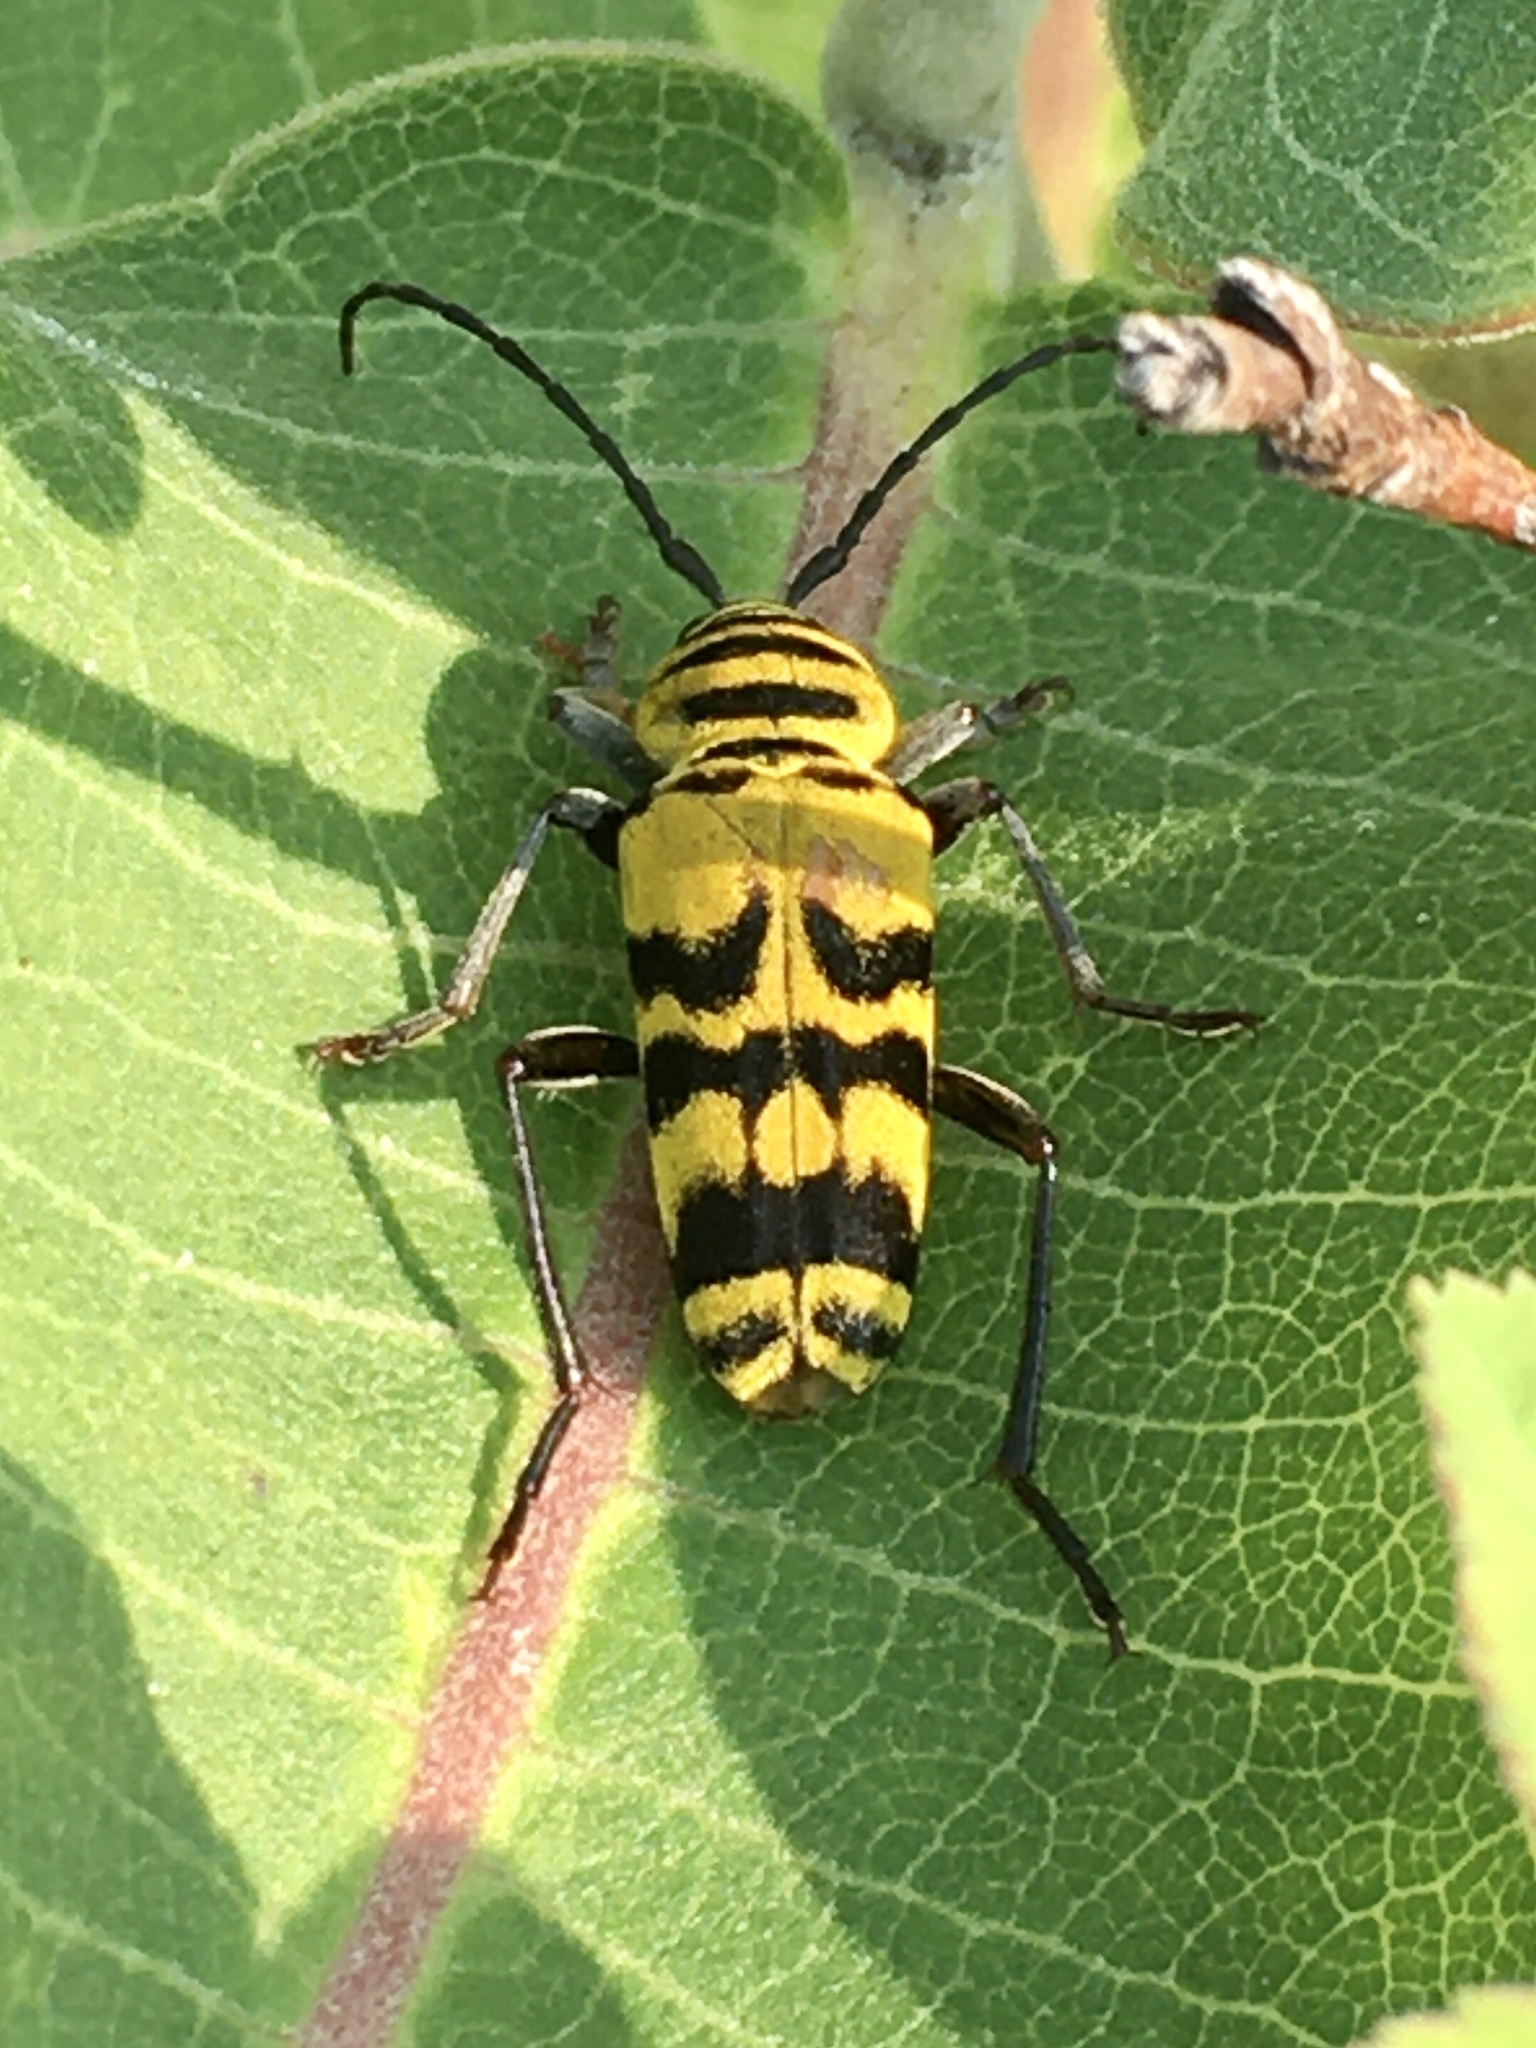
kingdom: Animalia
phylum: Arthropoda
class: Insecta
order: Coleoptera
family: Cerambycidae
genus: Megacyllene
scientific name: Megacyllene decora
